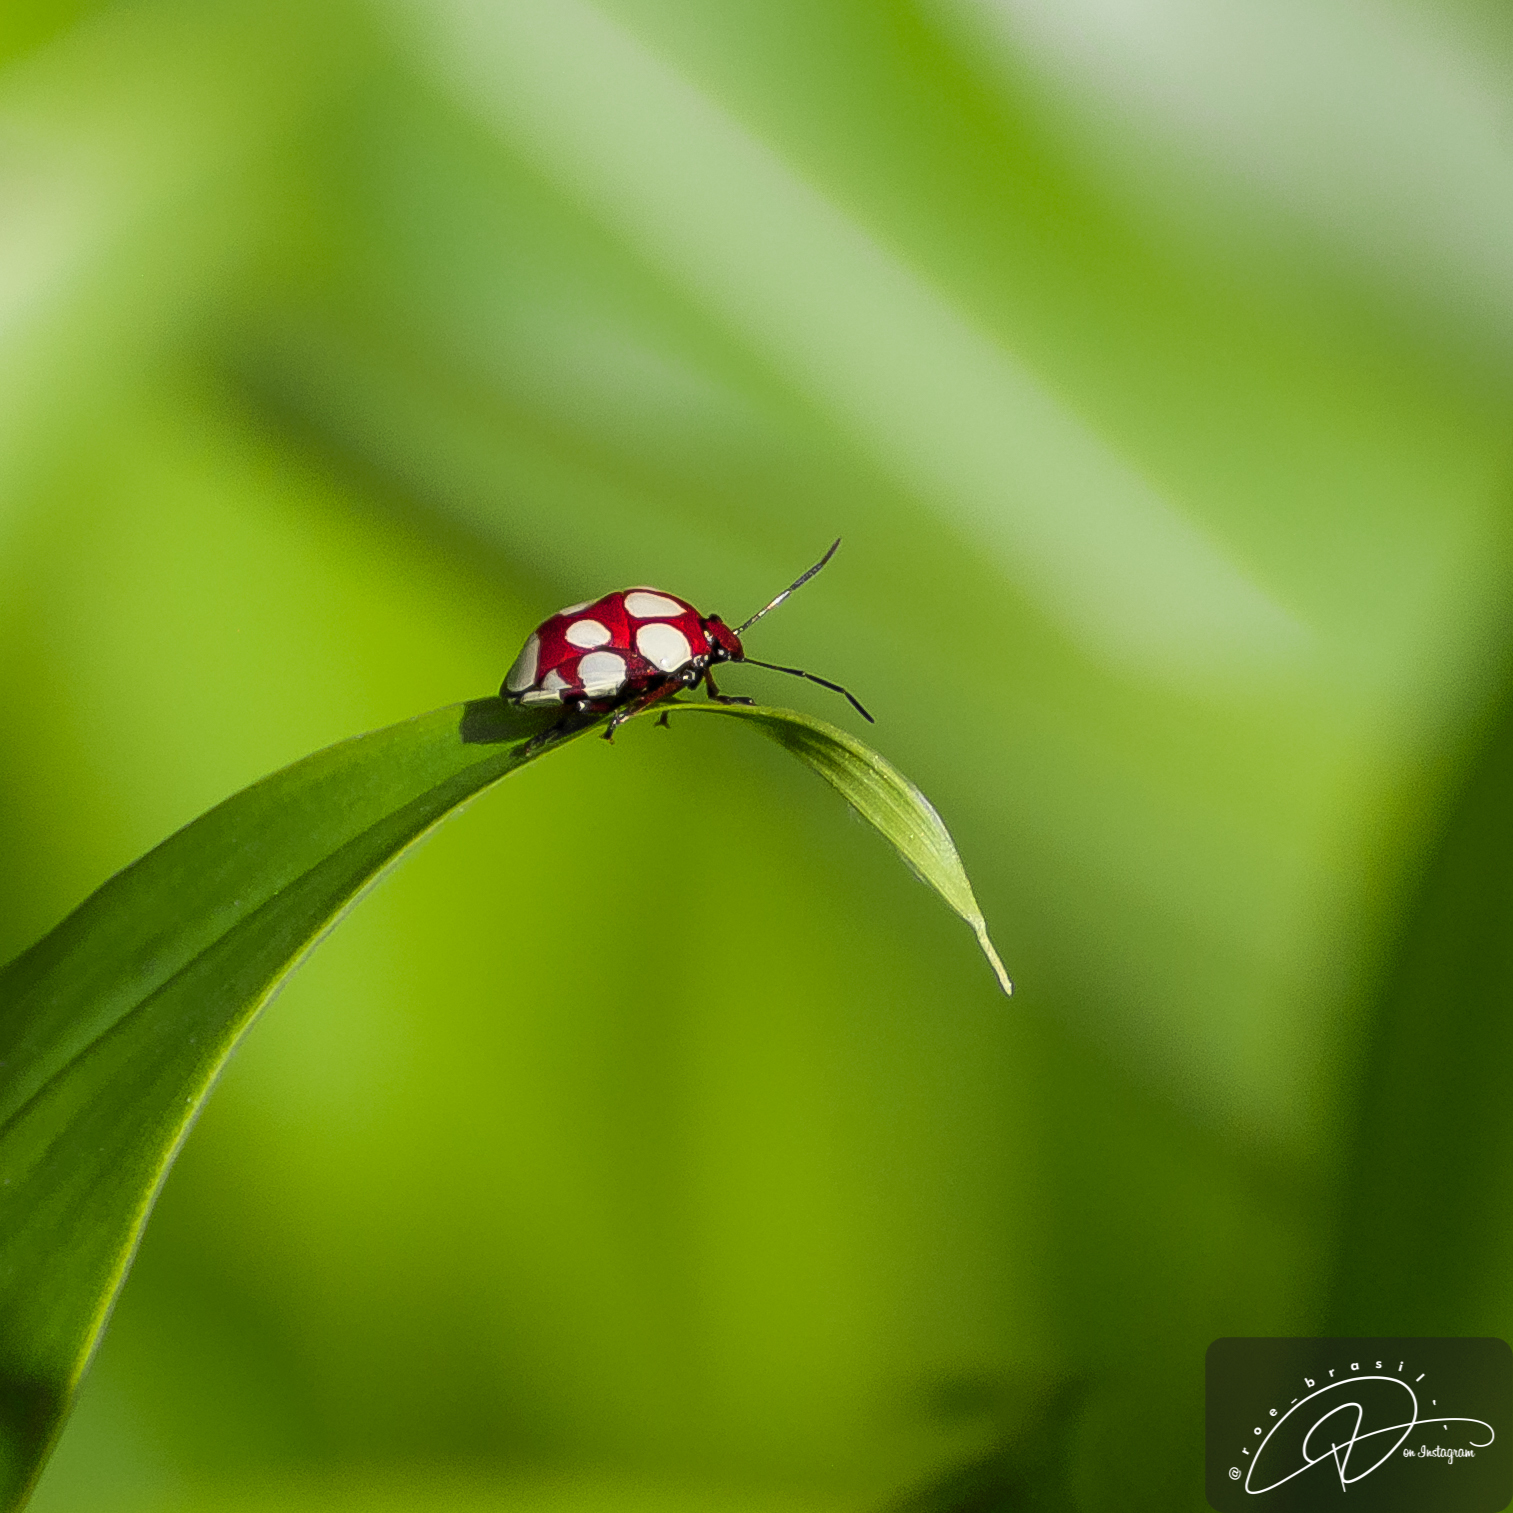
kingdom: Animalia
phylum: Arthropoda
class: Insecta
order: Hemiptera
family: Pentatomidae
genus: Stiretrus
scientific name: Stiretrus decemguttatus
